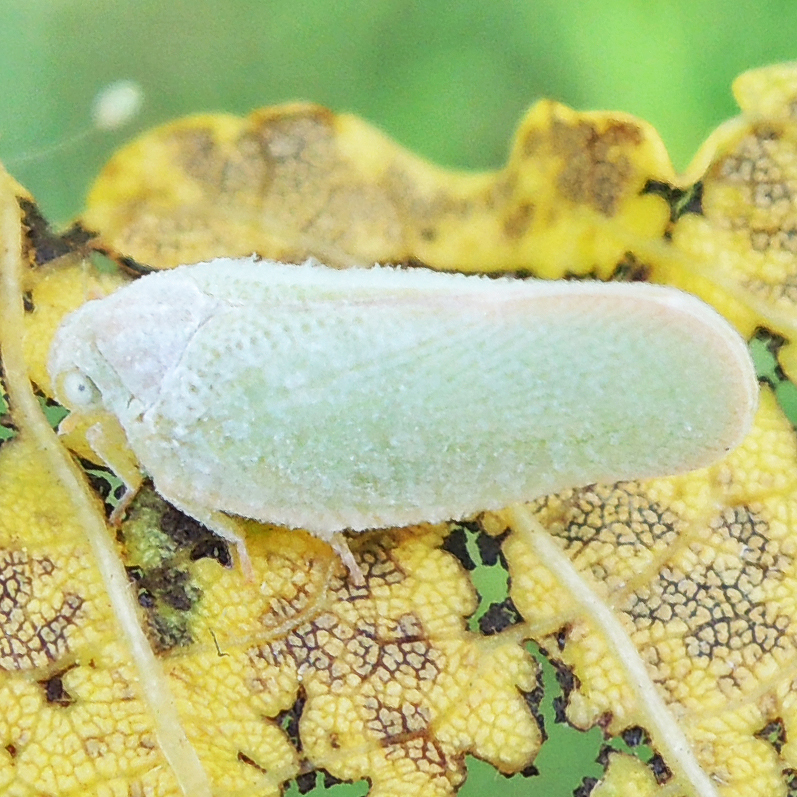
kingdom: Animalia
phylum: Arthropoda
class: Insecta
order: Hemiptera
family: Flatidae
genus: Ormenoides
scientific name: Ormenoides venusta
